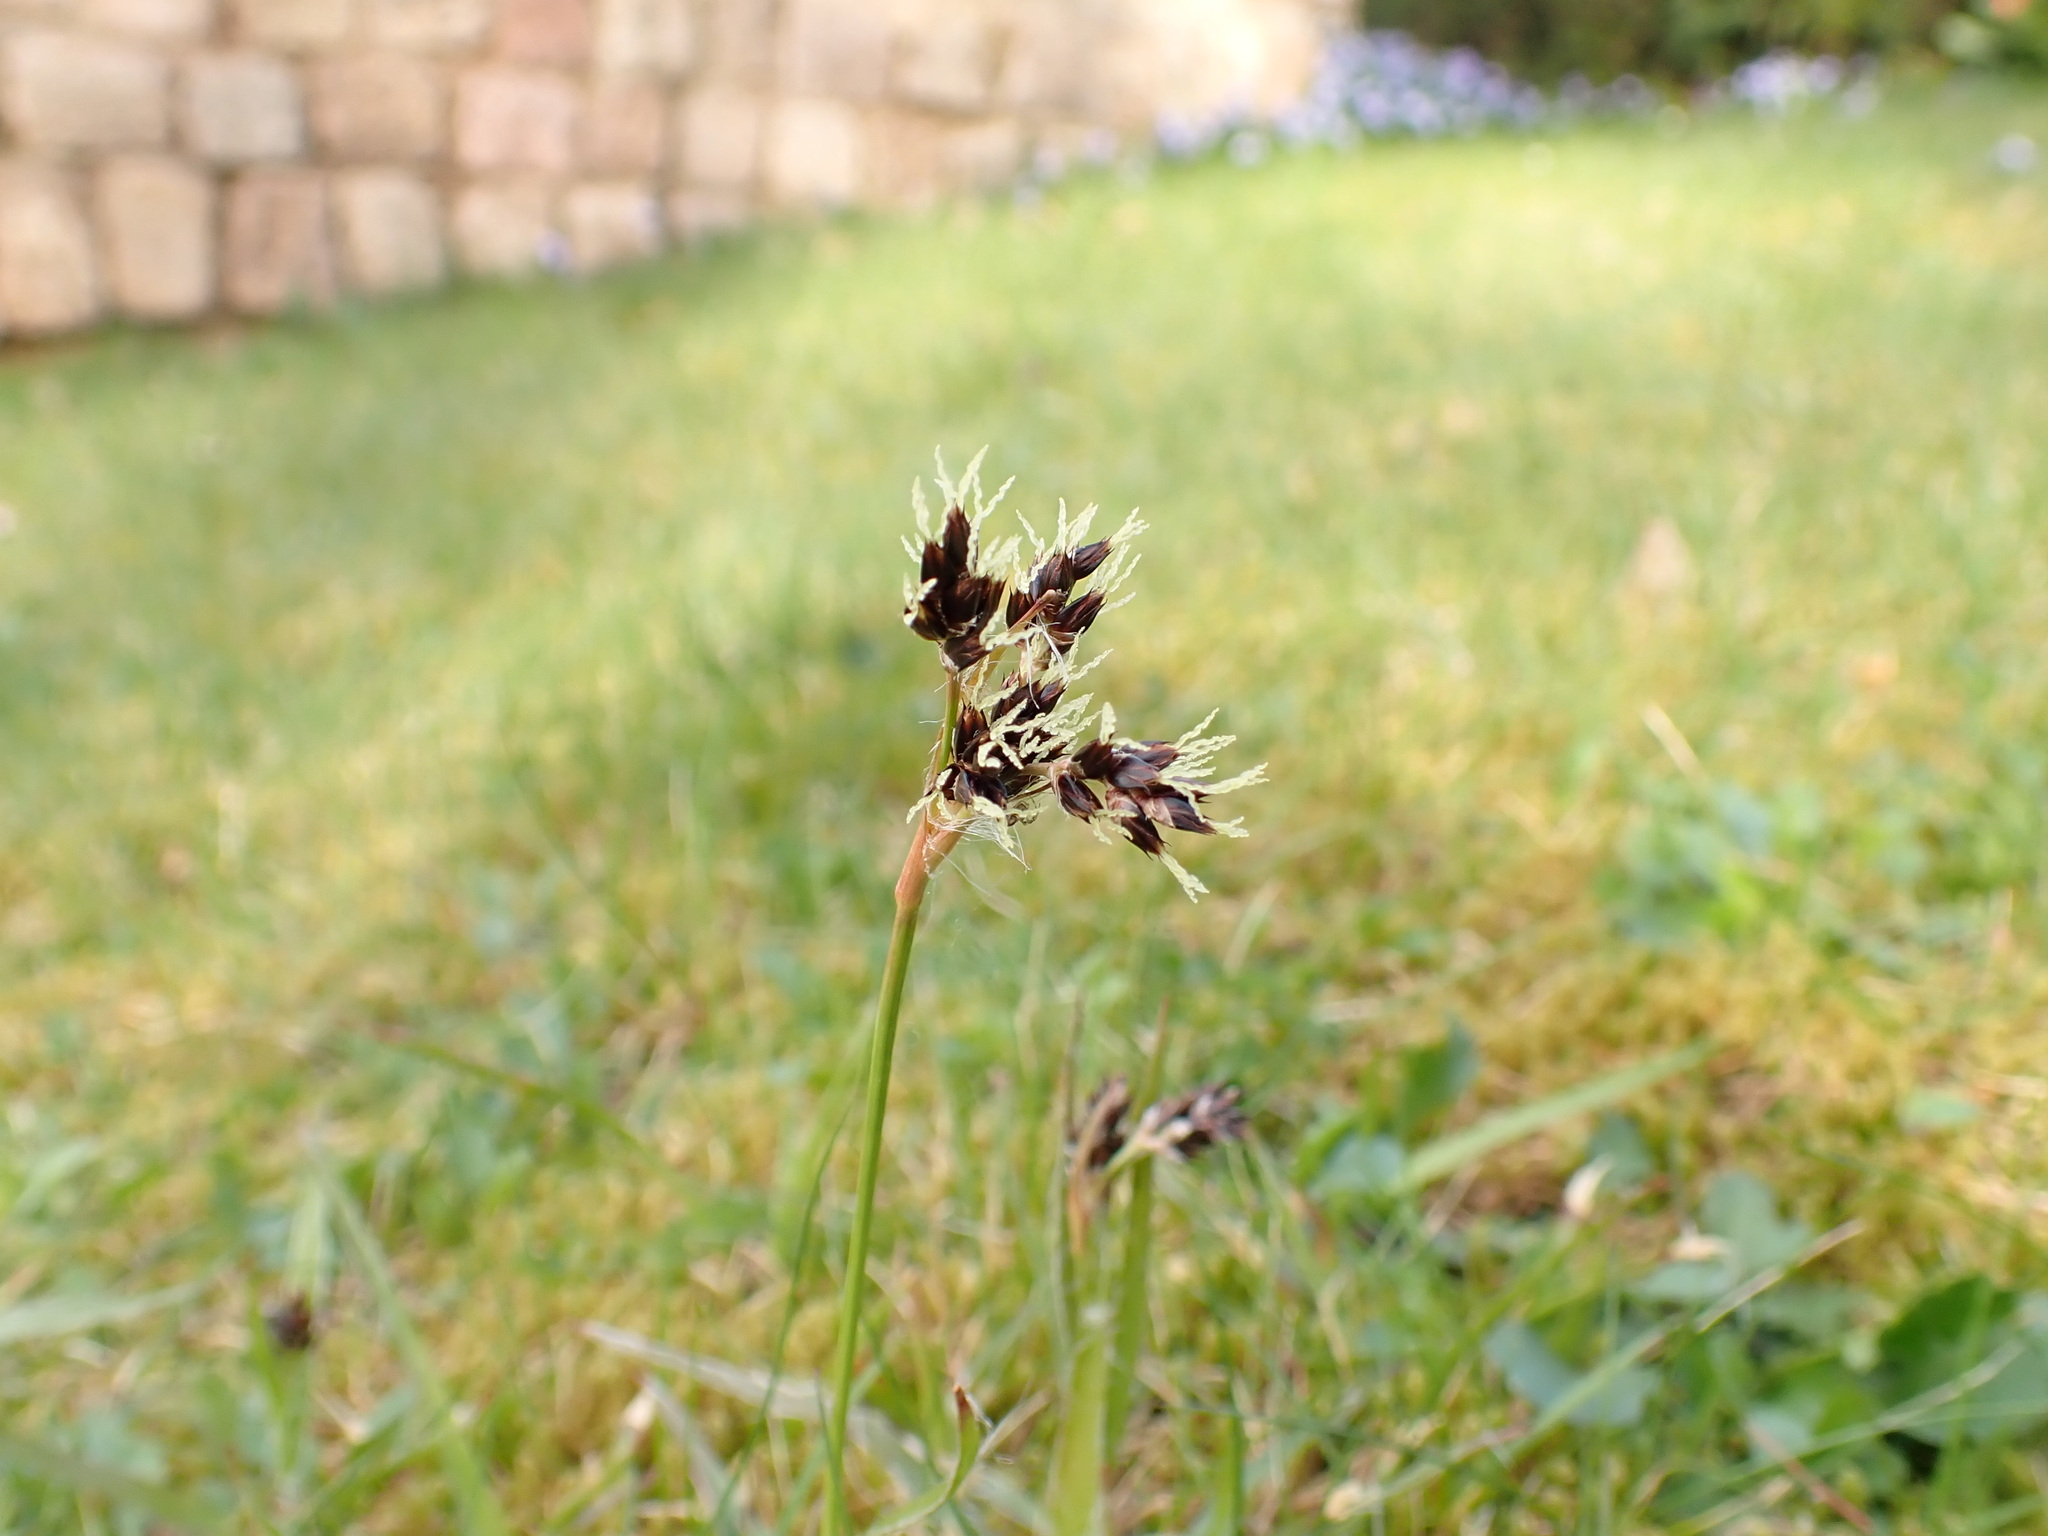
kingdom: Plantae
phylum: Tracheophyta
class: Liliopsida
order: Poales
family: Juncaceae
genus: Luzula
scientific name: Luzula campestris
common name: Field wood-rush
